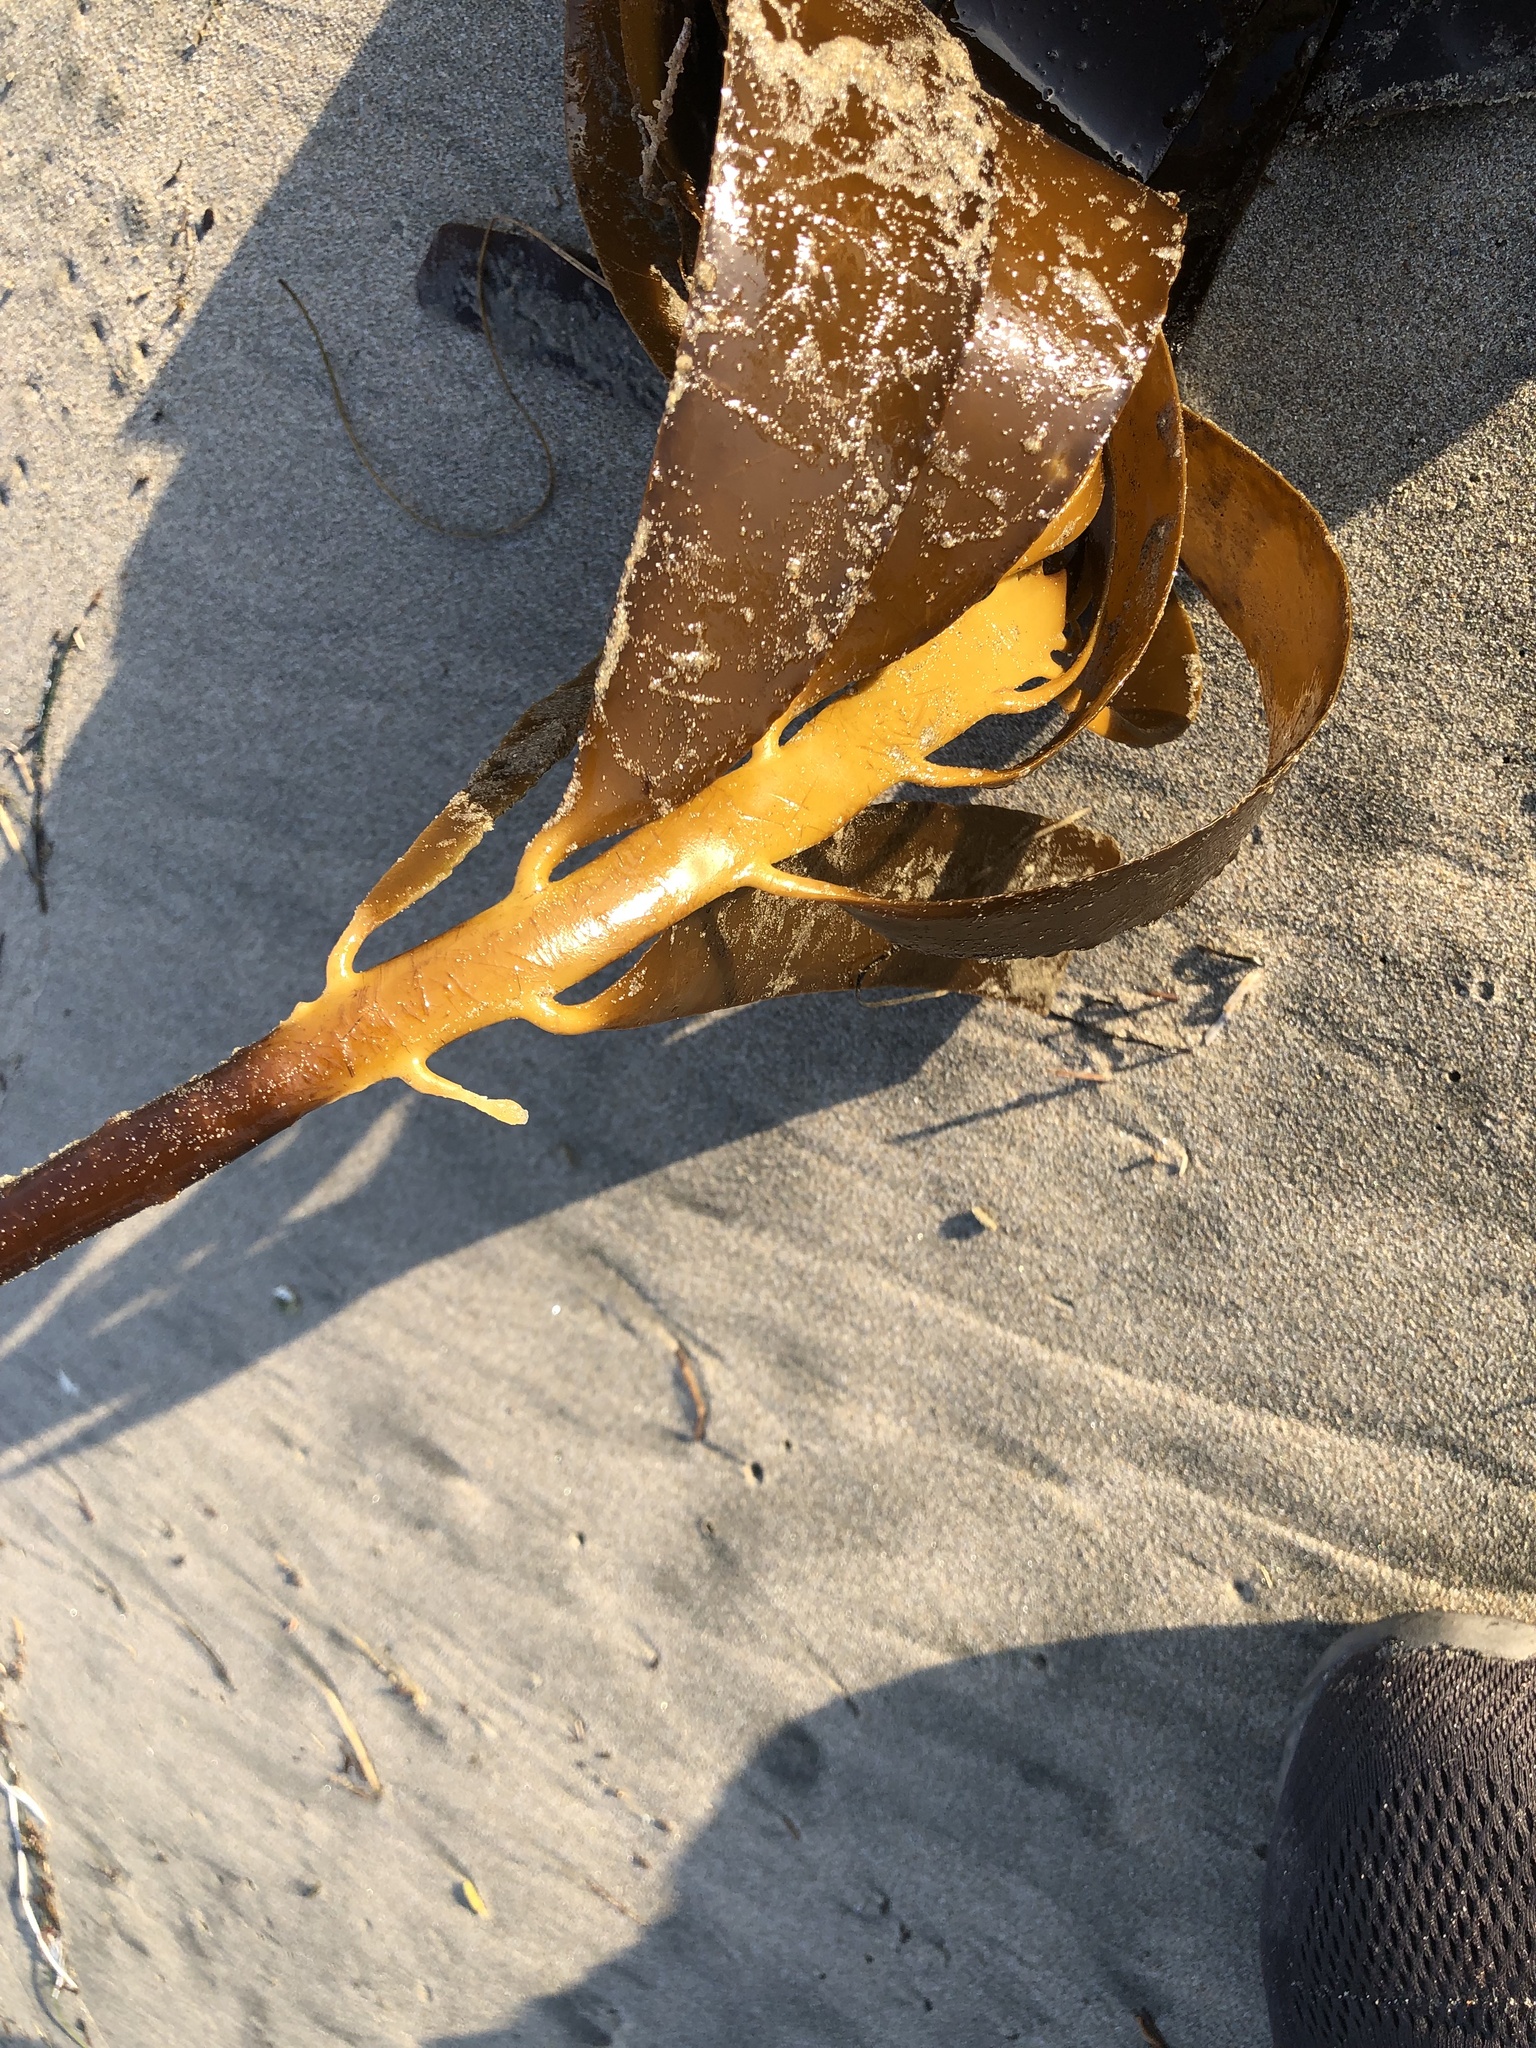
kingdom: Chromista
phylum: Ochrophyta
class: Phaeophyceae
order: Laminariales
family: Alariaceae
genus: Pterygophora
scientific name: Pterygophora californica
